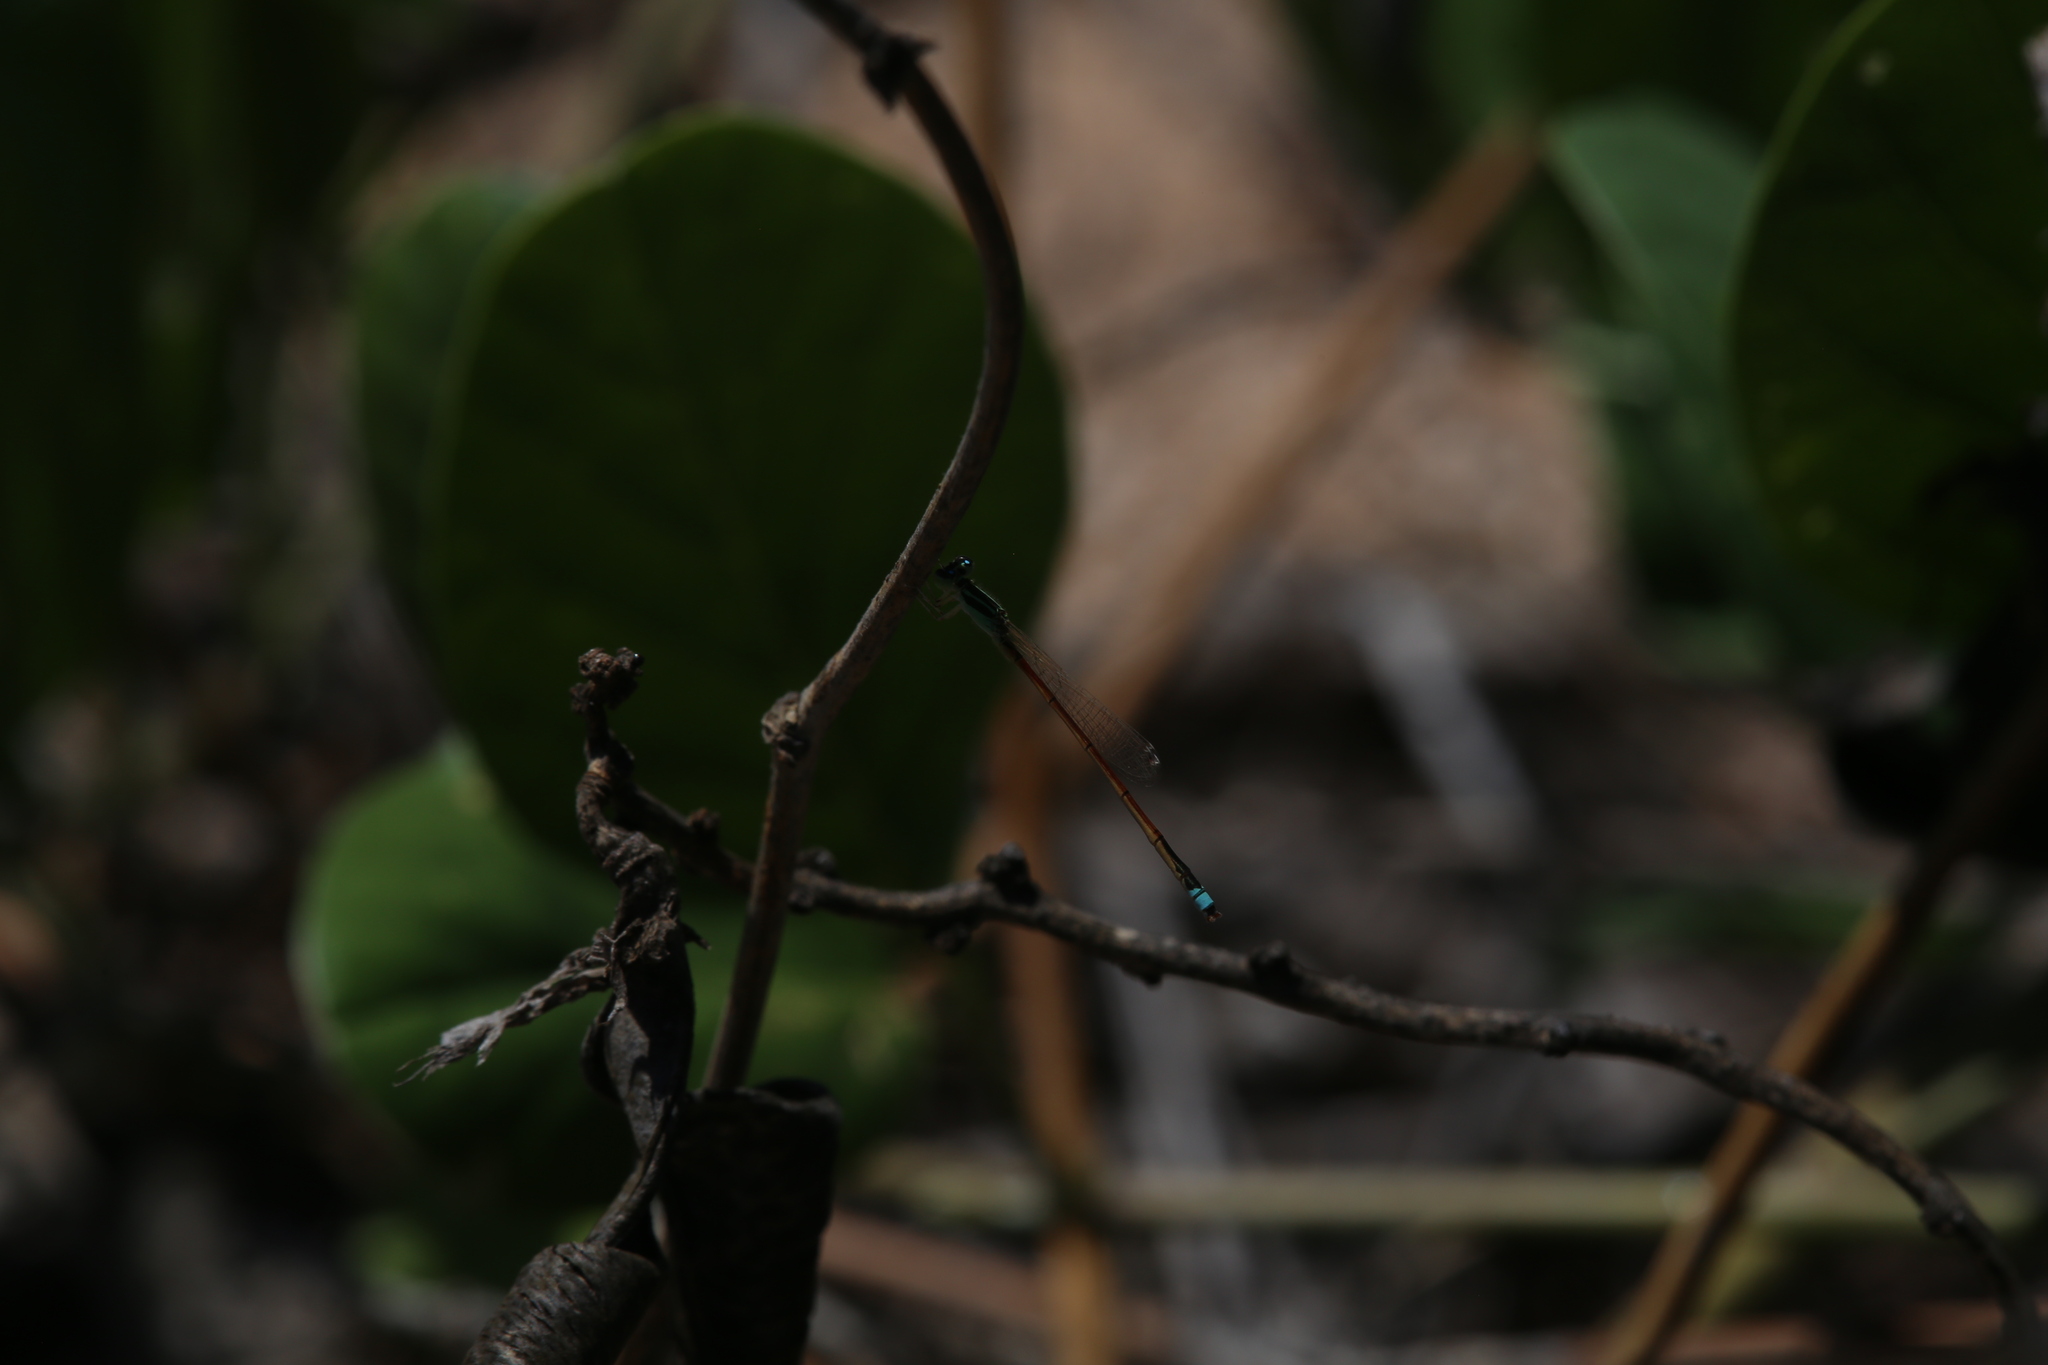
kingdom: Animalia
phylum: Arthropoda
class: Insecta
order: Odonata
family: Coenagrionidae
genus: Ischnura
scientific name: Ischnura aurora
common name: Gossamer damselfly
